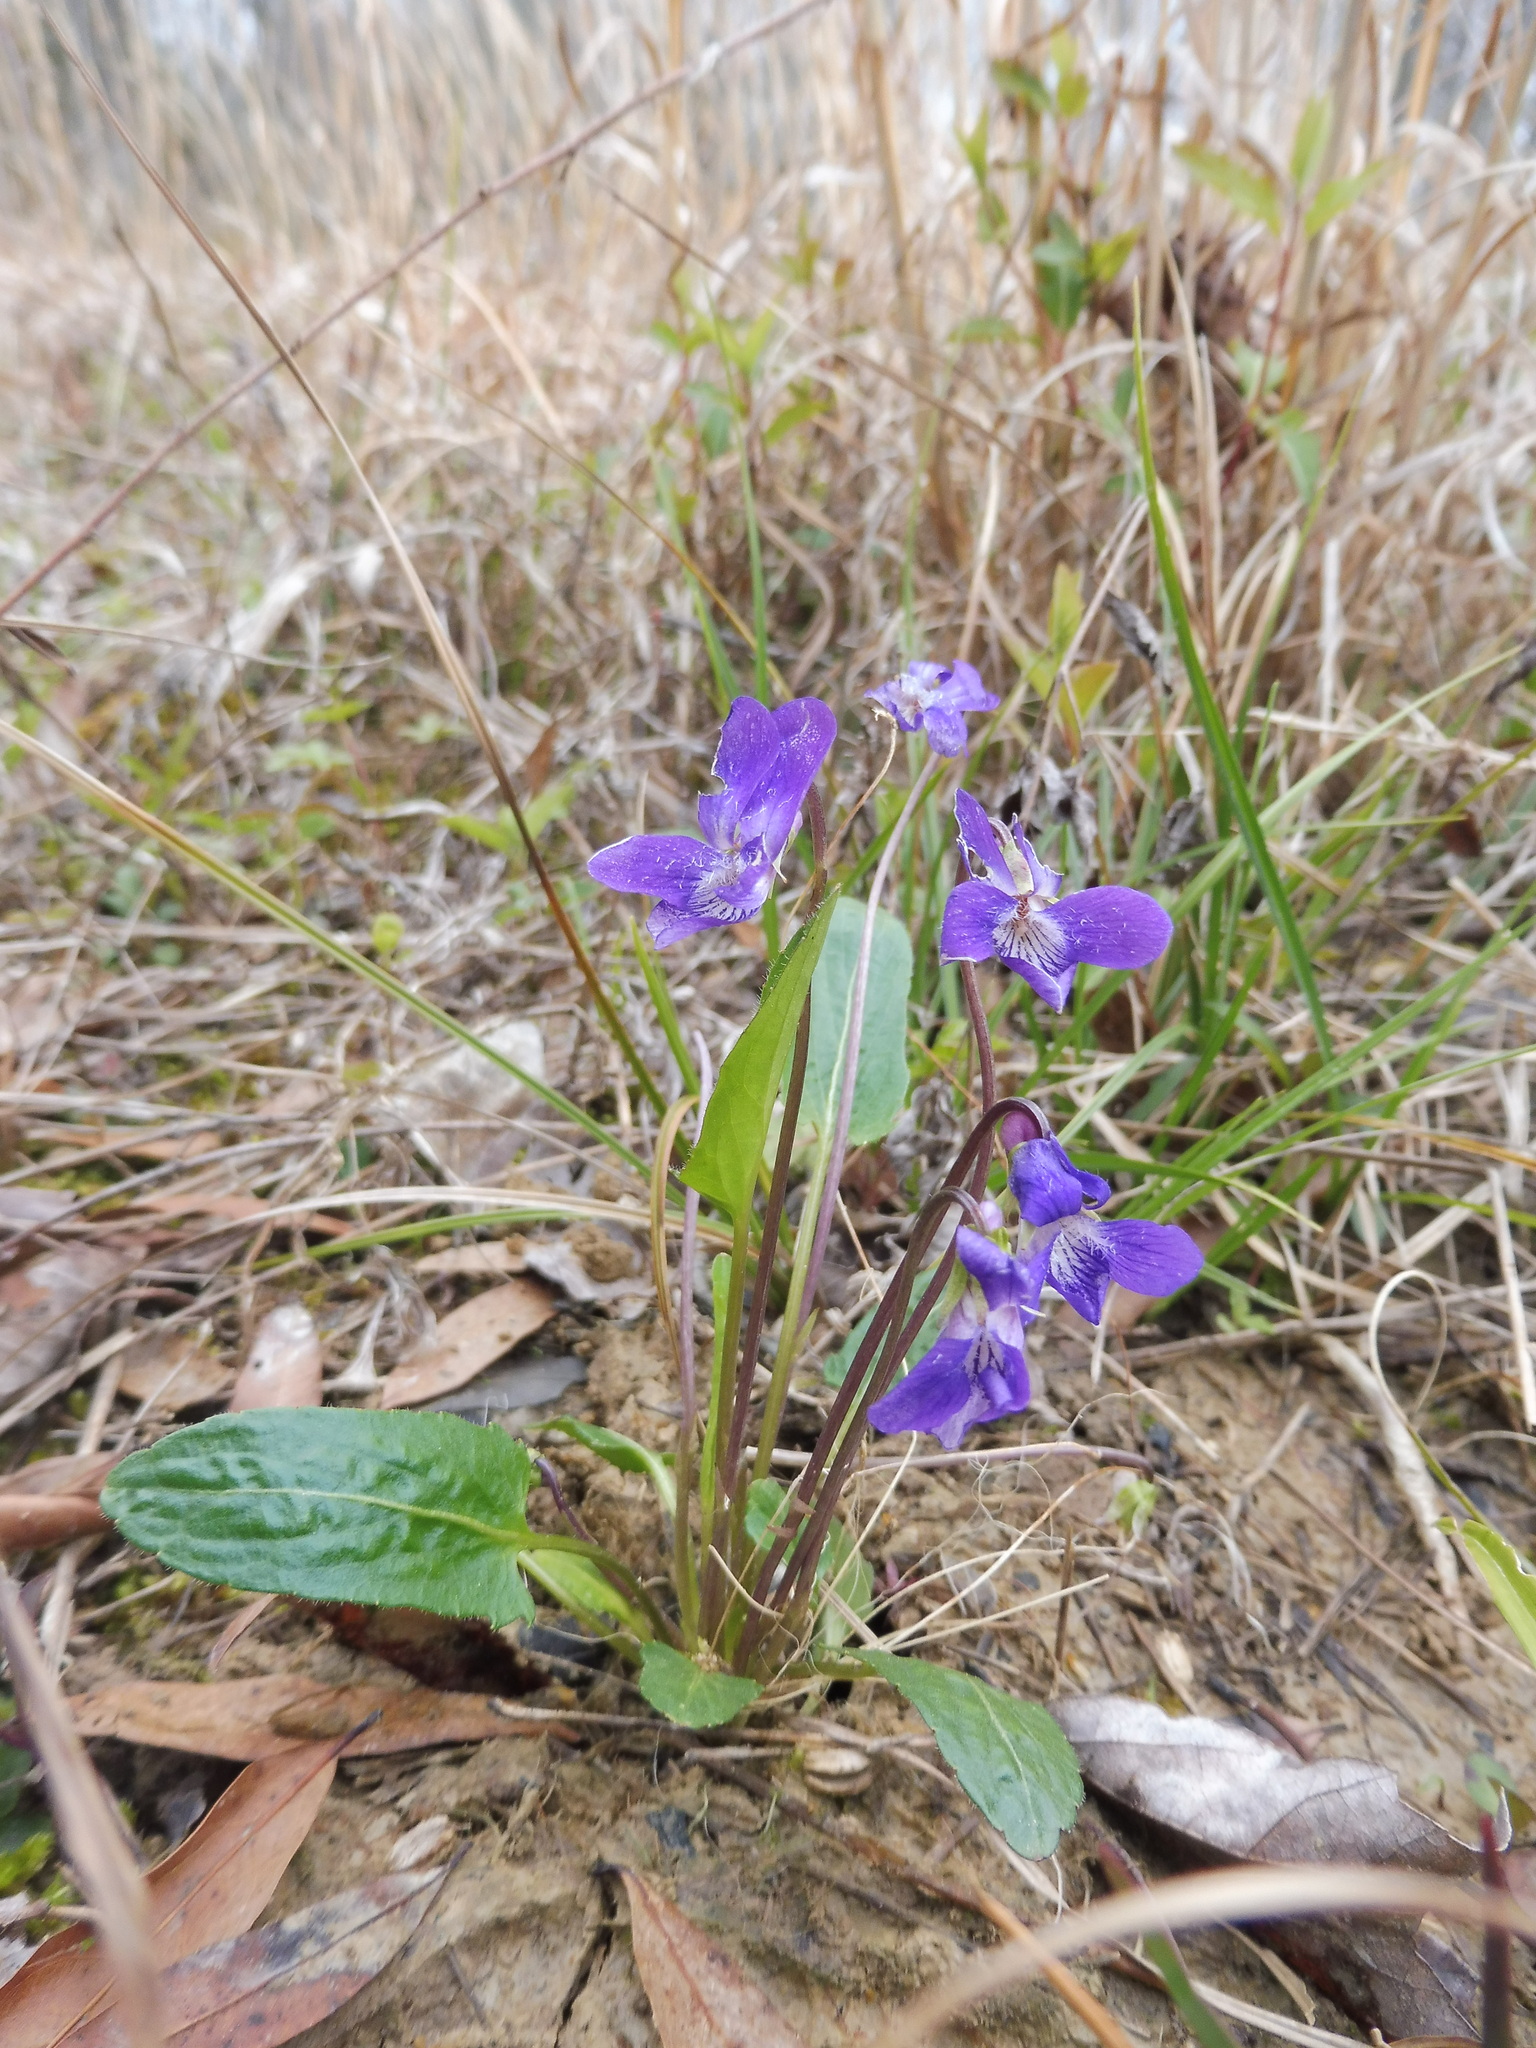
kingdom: Plantae
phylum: Tracheophyta
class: Magnoliopsida
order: Malpighiales
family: Violaceae
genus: Viola
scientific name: Viola sagittata
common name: Arrowhead violet
